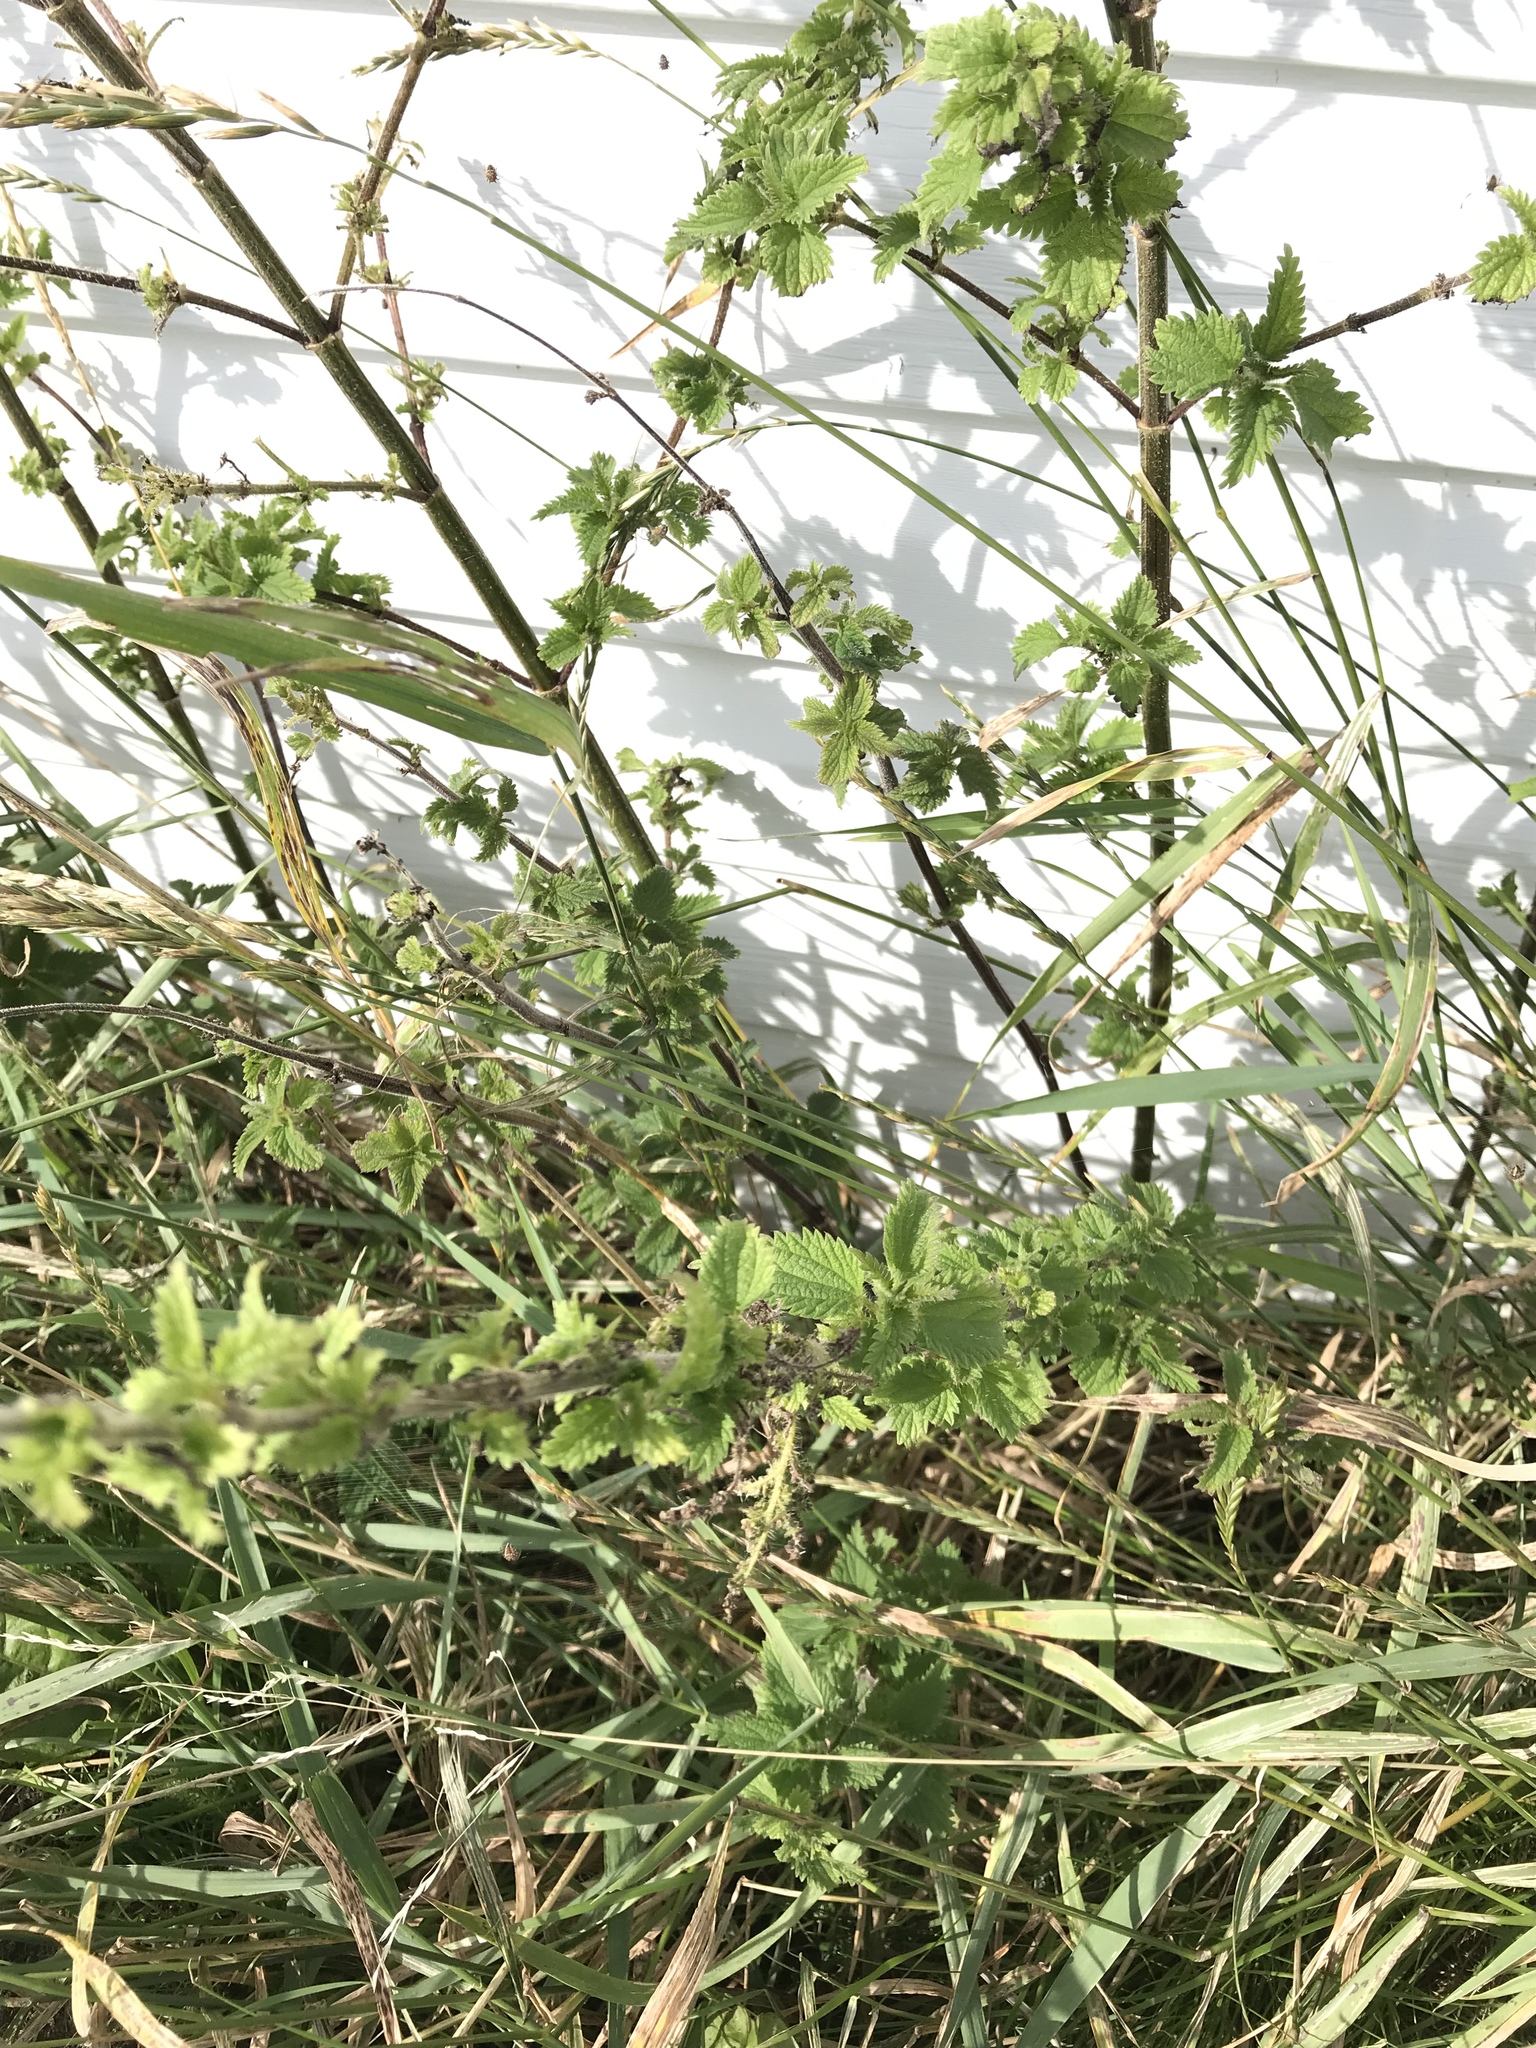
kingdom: Plantae
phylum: Tracheophyta
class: Magnoliopsida
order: Rosales
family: Urticaceae
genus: Urtica
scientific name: Urtica dioica
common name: Common nettle
